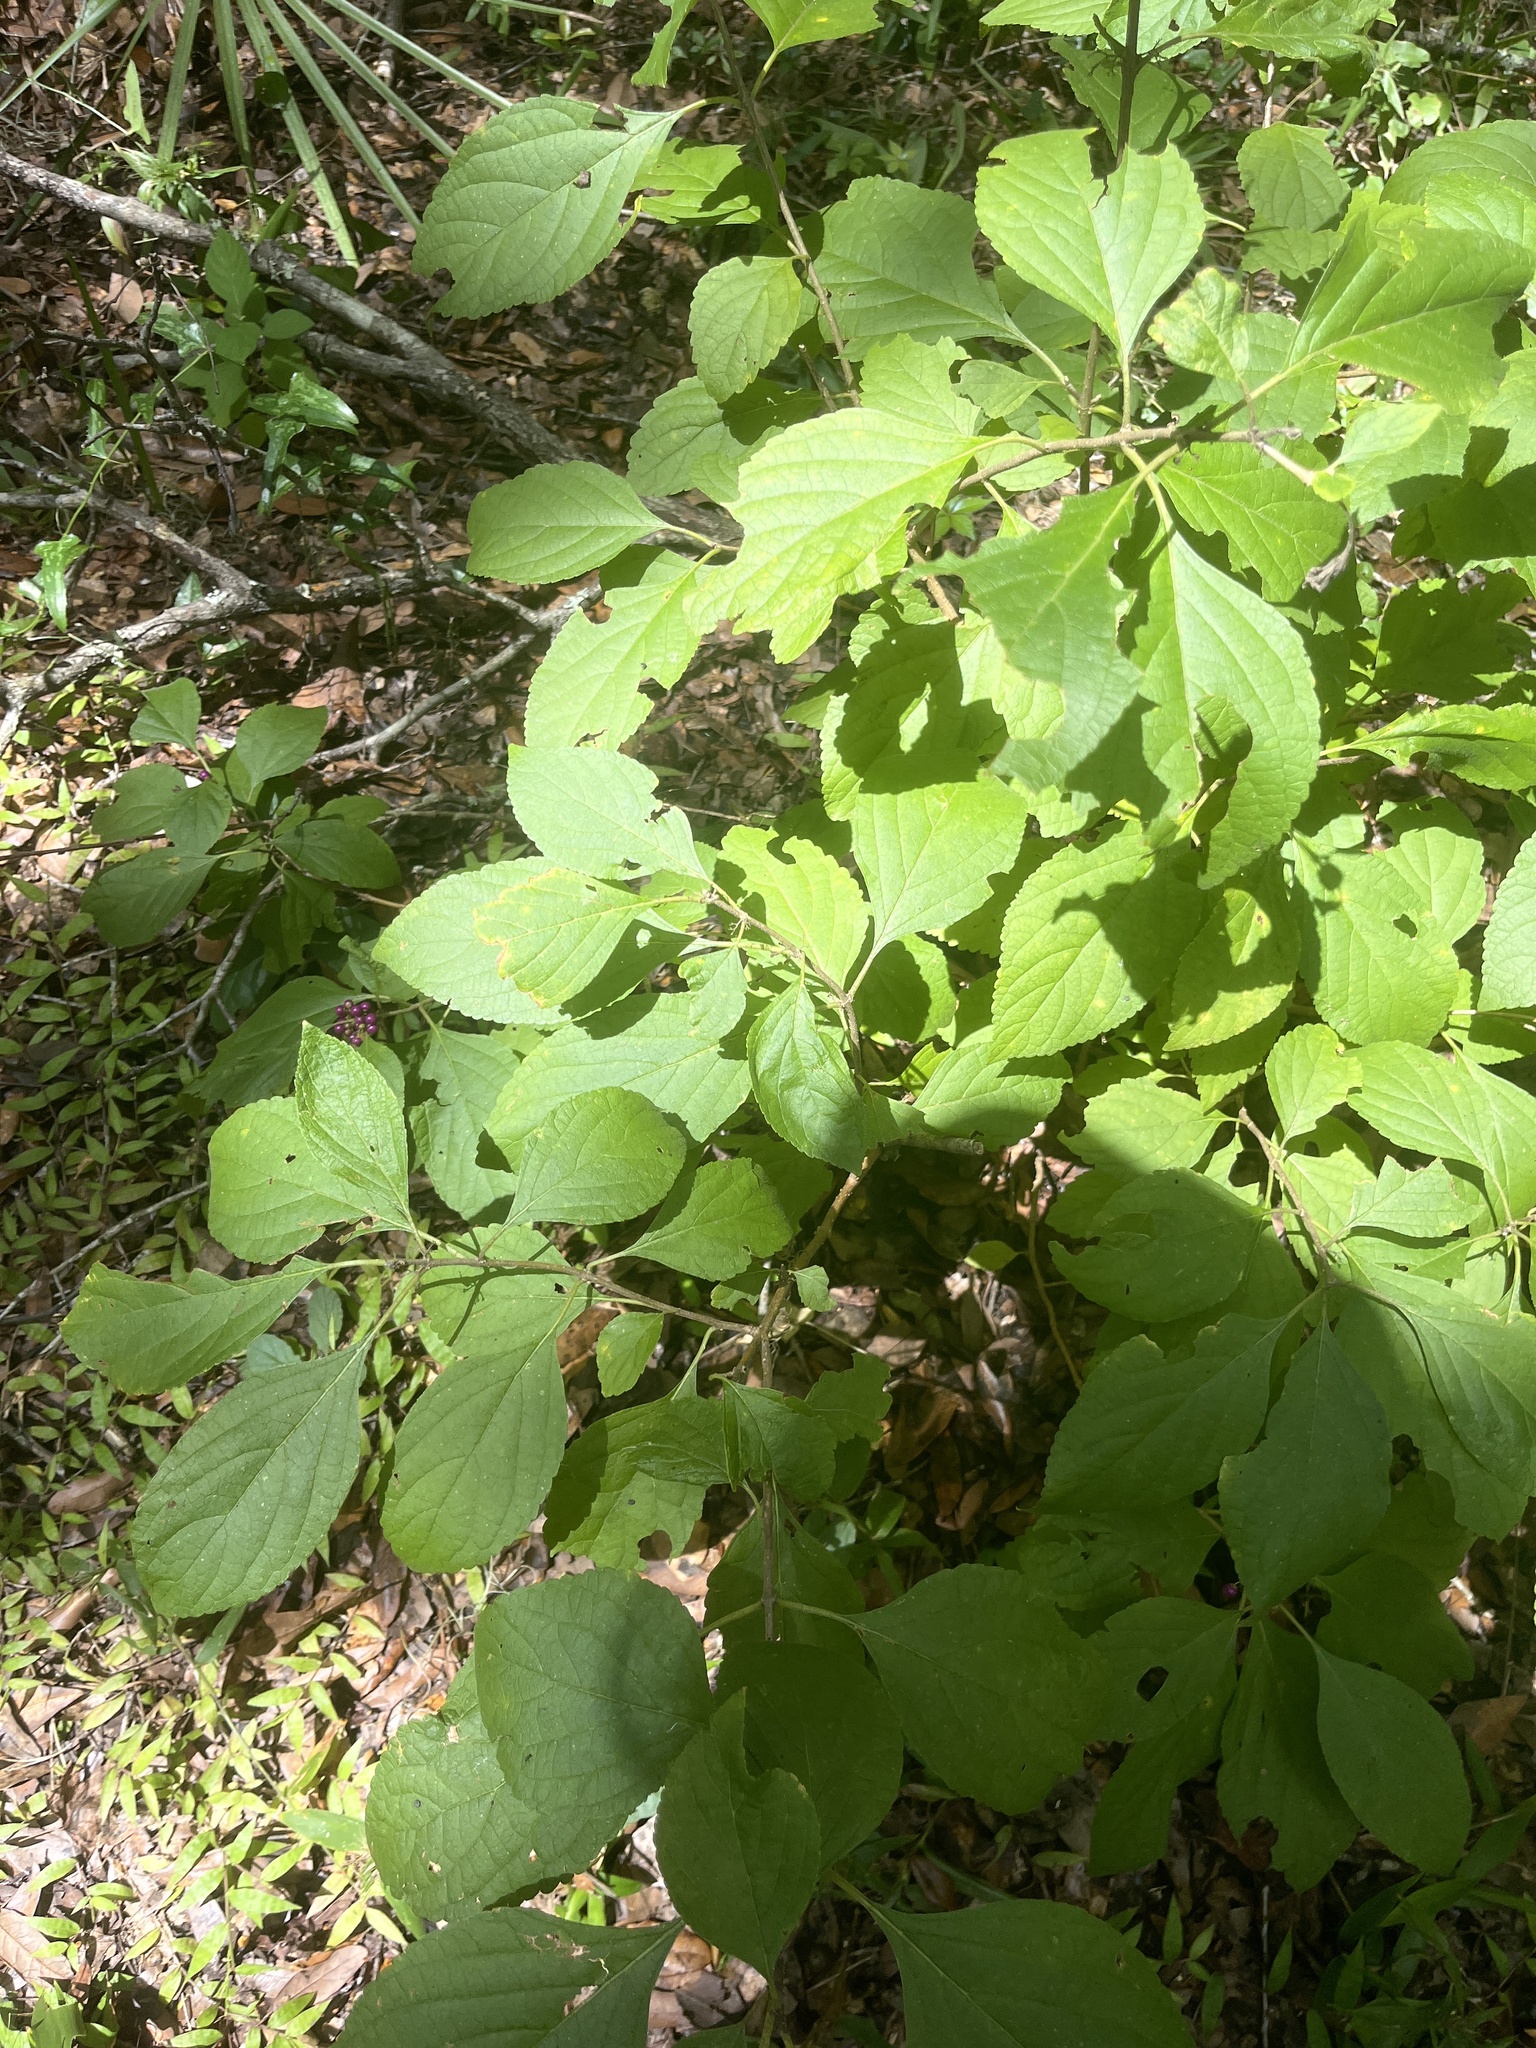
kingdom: Plantae
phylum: Tracheophyta
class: Magnoliopsida
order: Lamiales
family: Lamiaceae
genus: Callicarpa
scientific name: Callicarpa americana
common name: American beautyberry
